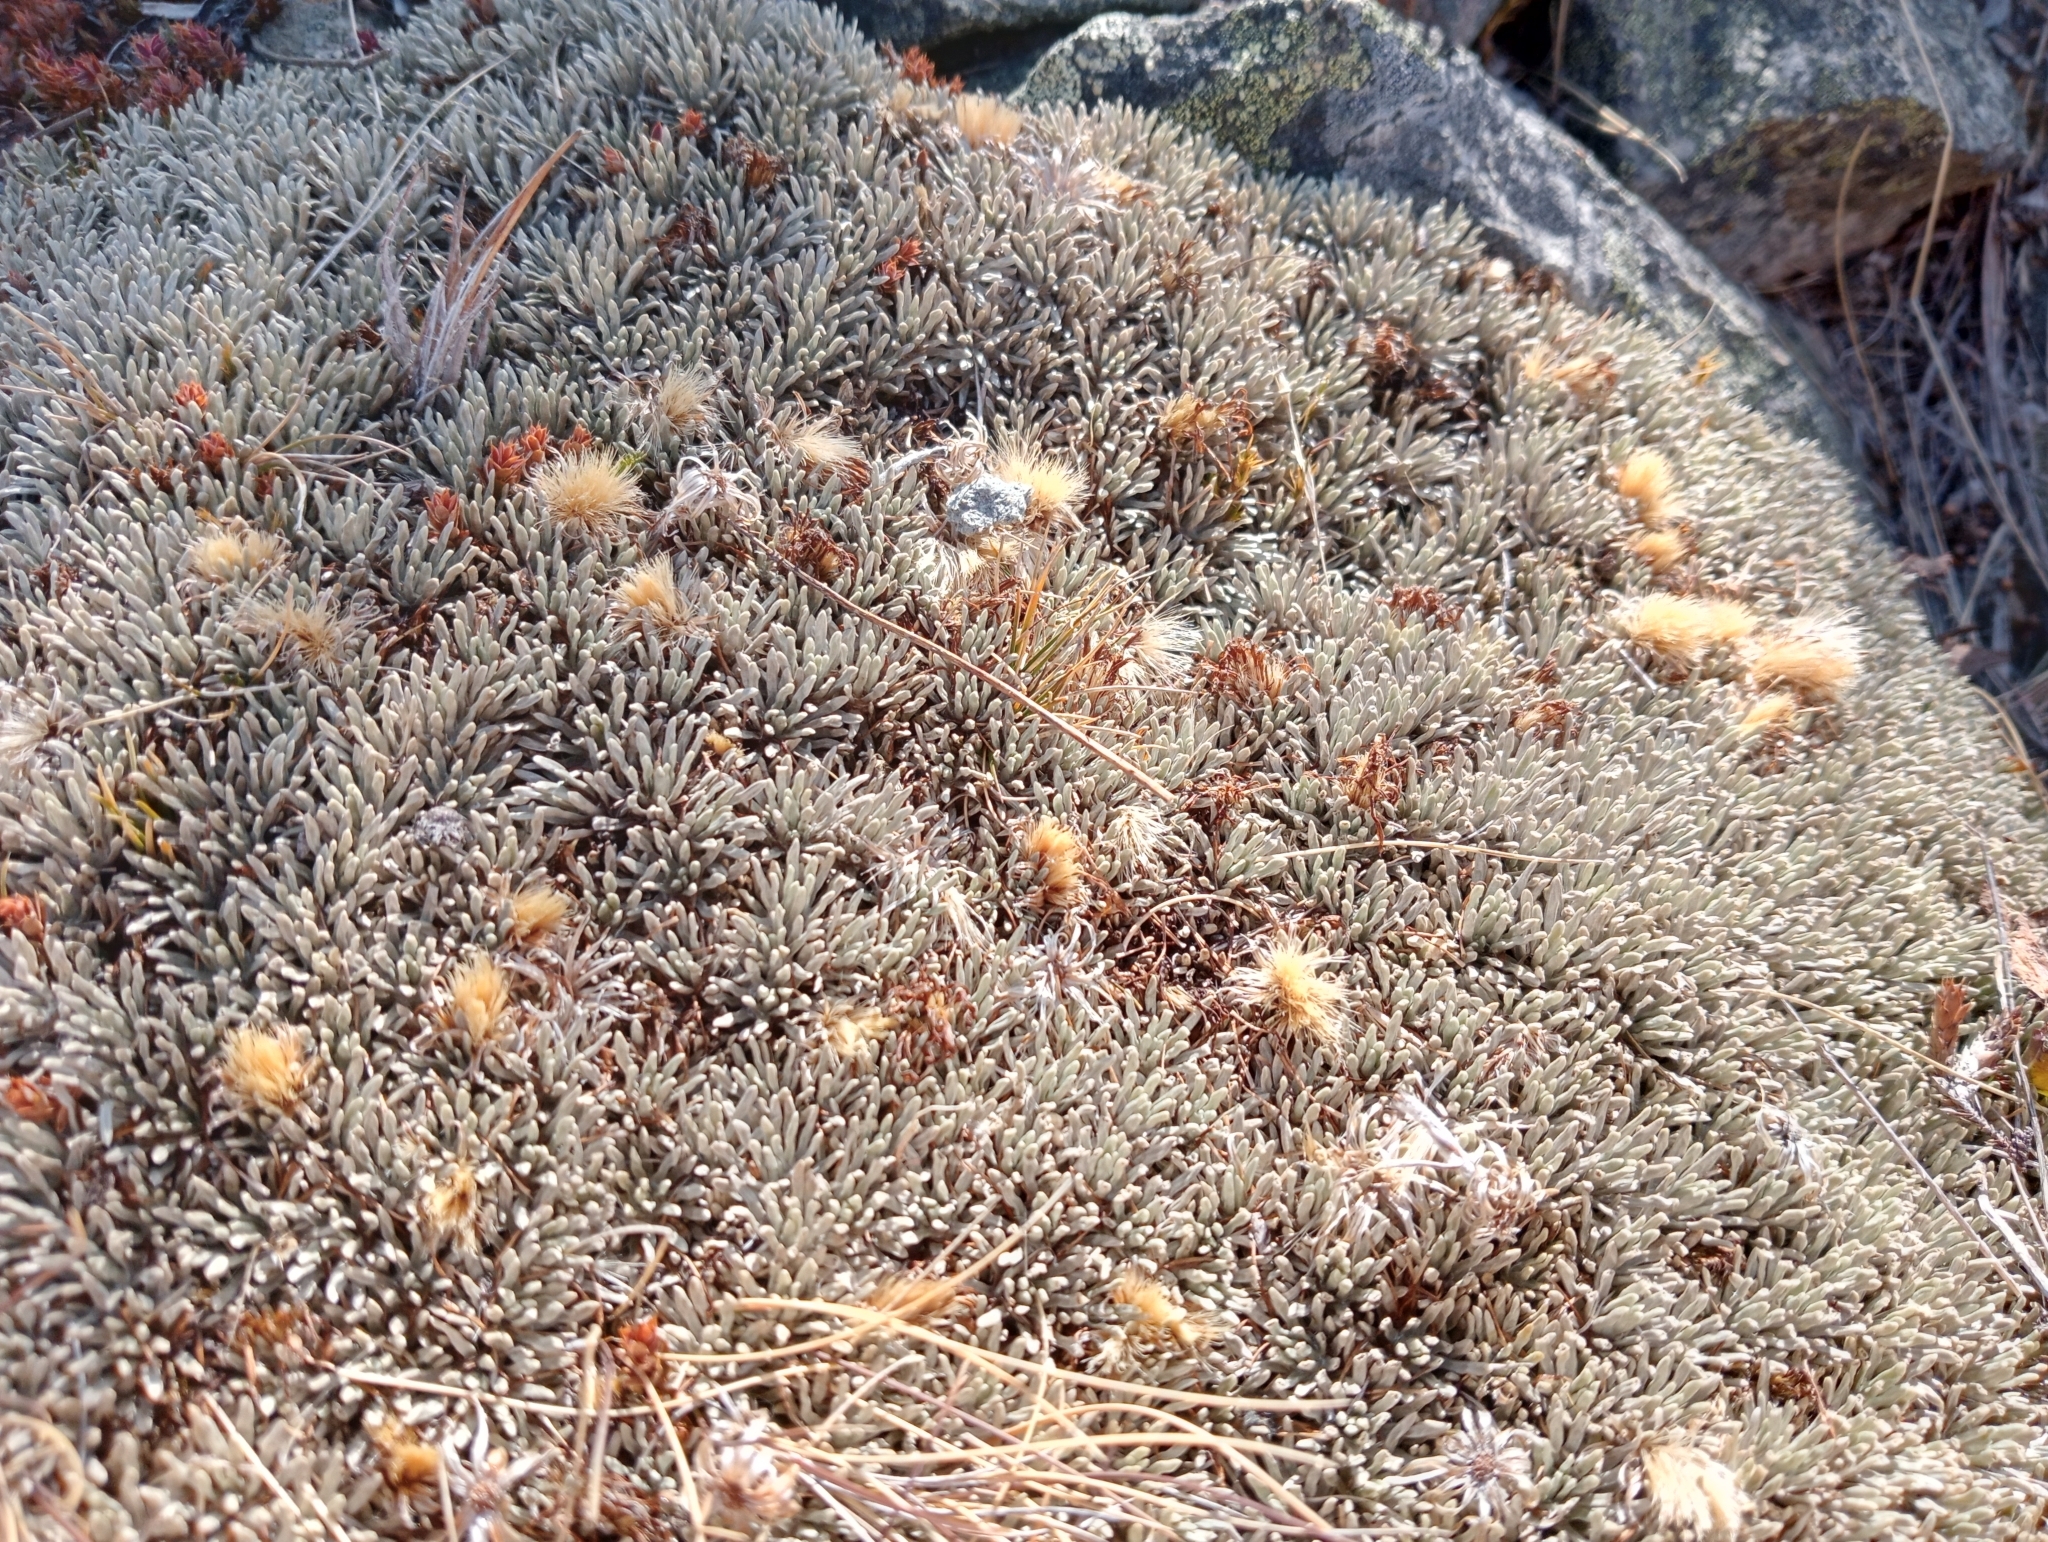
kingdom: Plantae
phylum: Tracheophyta
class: Magnoliopsida
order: Asterales
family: Asteraceae
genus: Celmisia
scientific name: Celmisia sessiliflora
